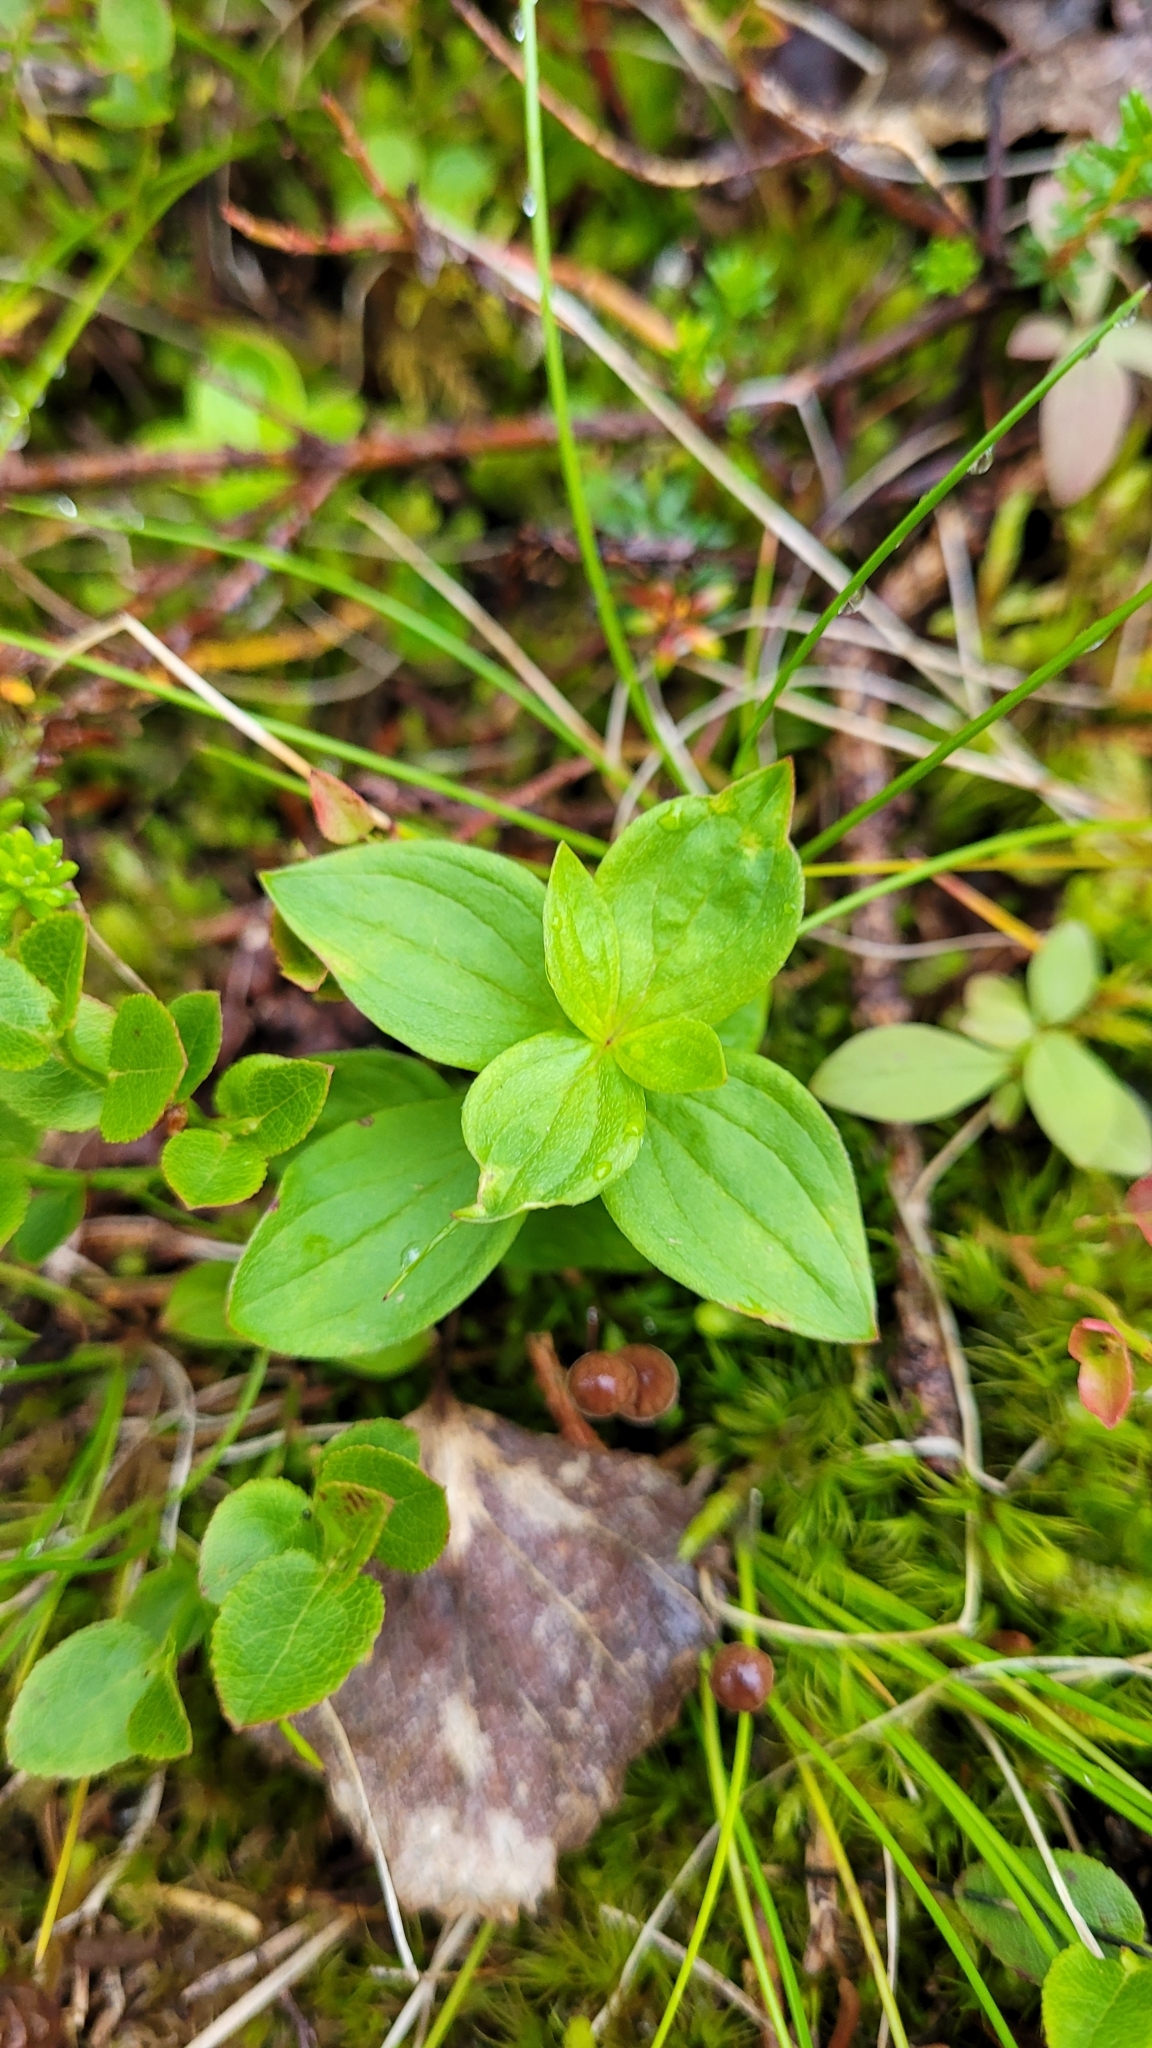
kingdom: Plantae
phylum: Tracheophyta
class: Magnoliopsida
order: Cornales
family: Cornaceae
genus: Cornus
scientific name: Cornus suecica
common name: Dwarf cornel
